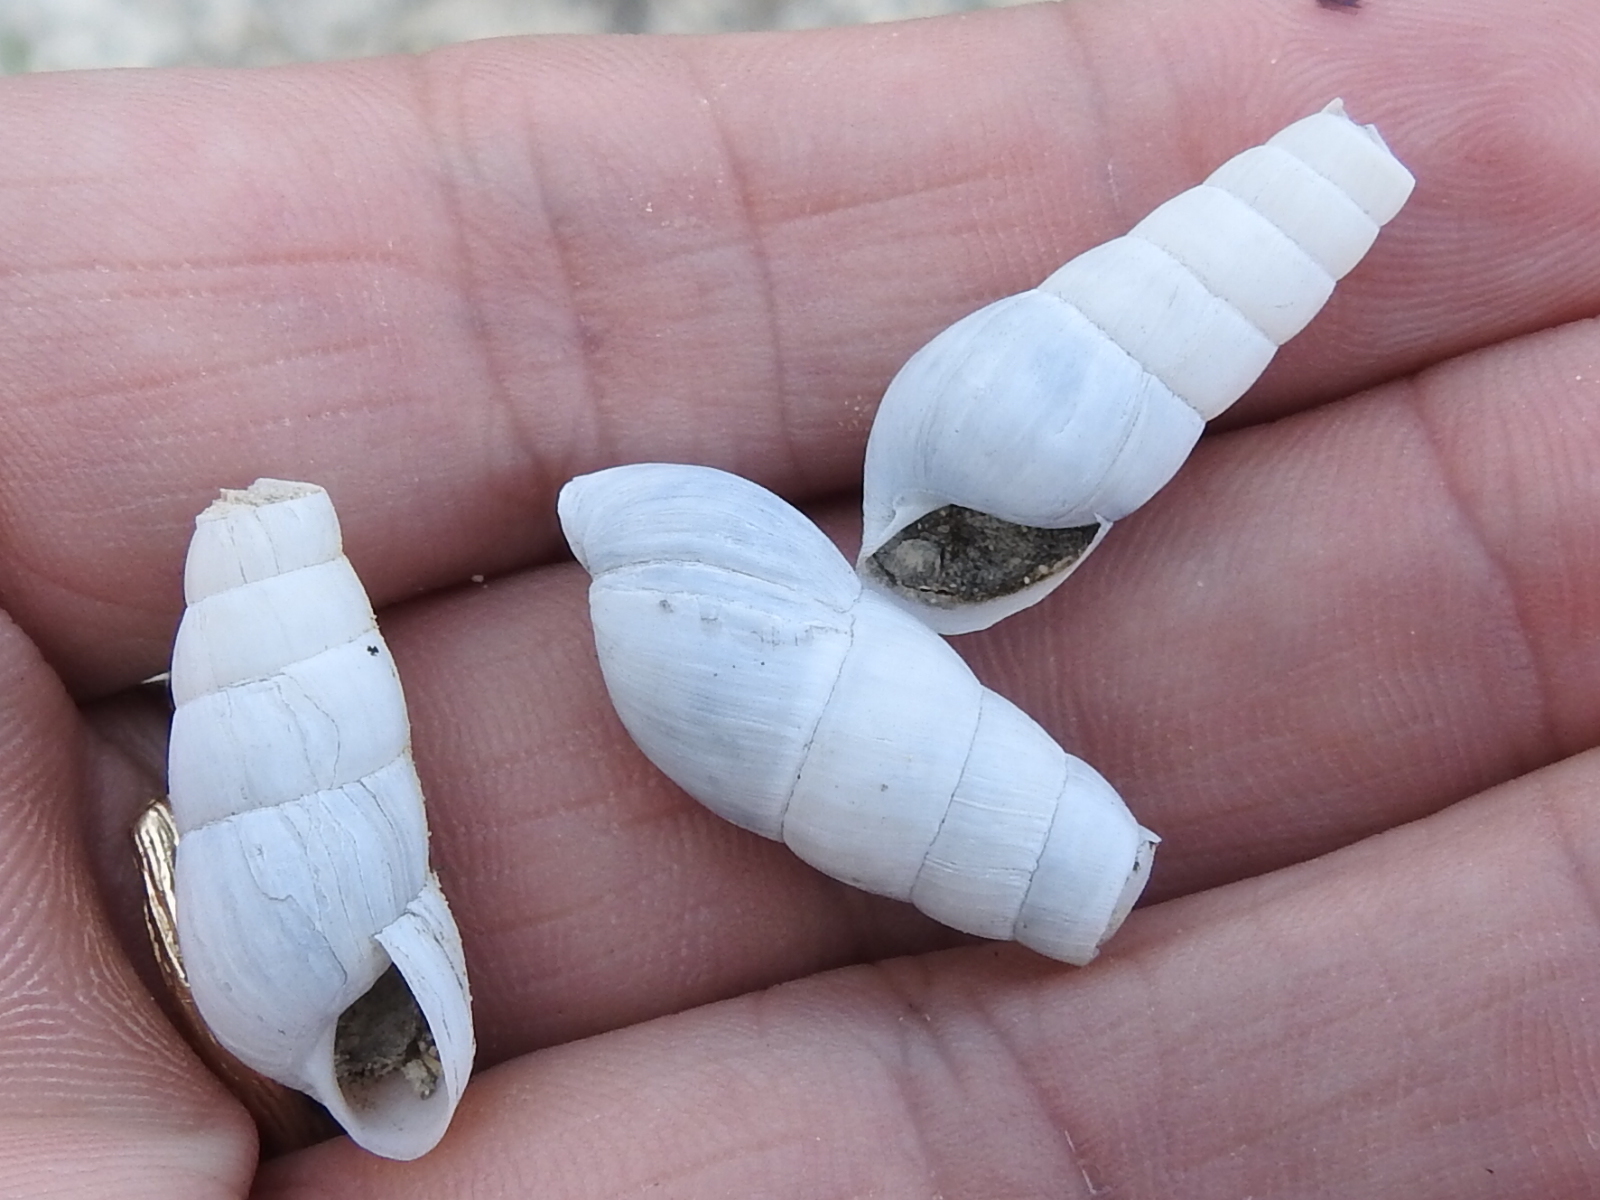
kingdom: Animalia
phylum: Mollusca
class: Gastropoda
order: Stylommatophora
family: Achatinidae
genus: Rumina
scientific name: Rumina decollata
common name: Decollate snail
